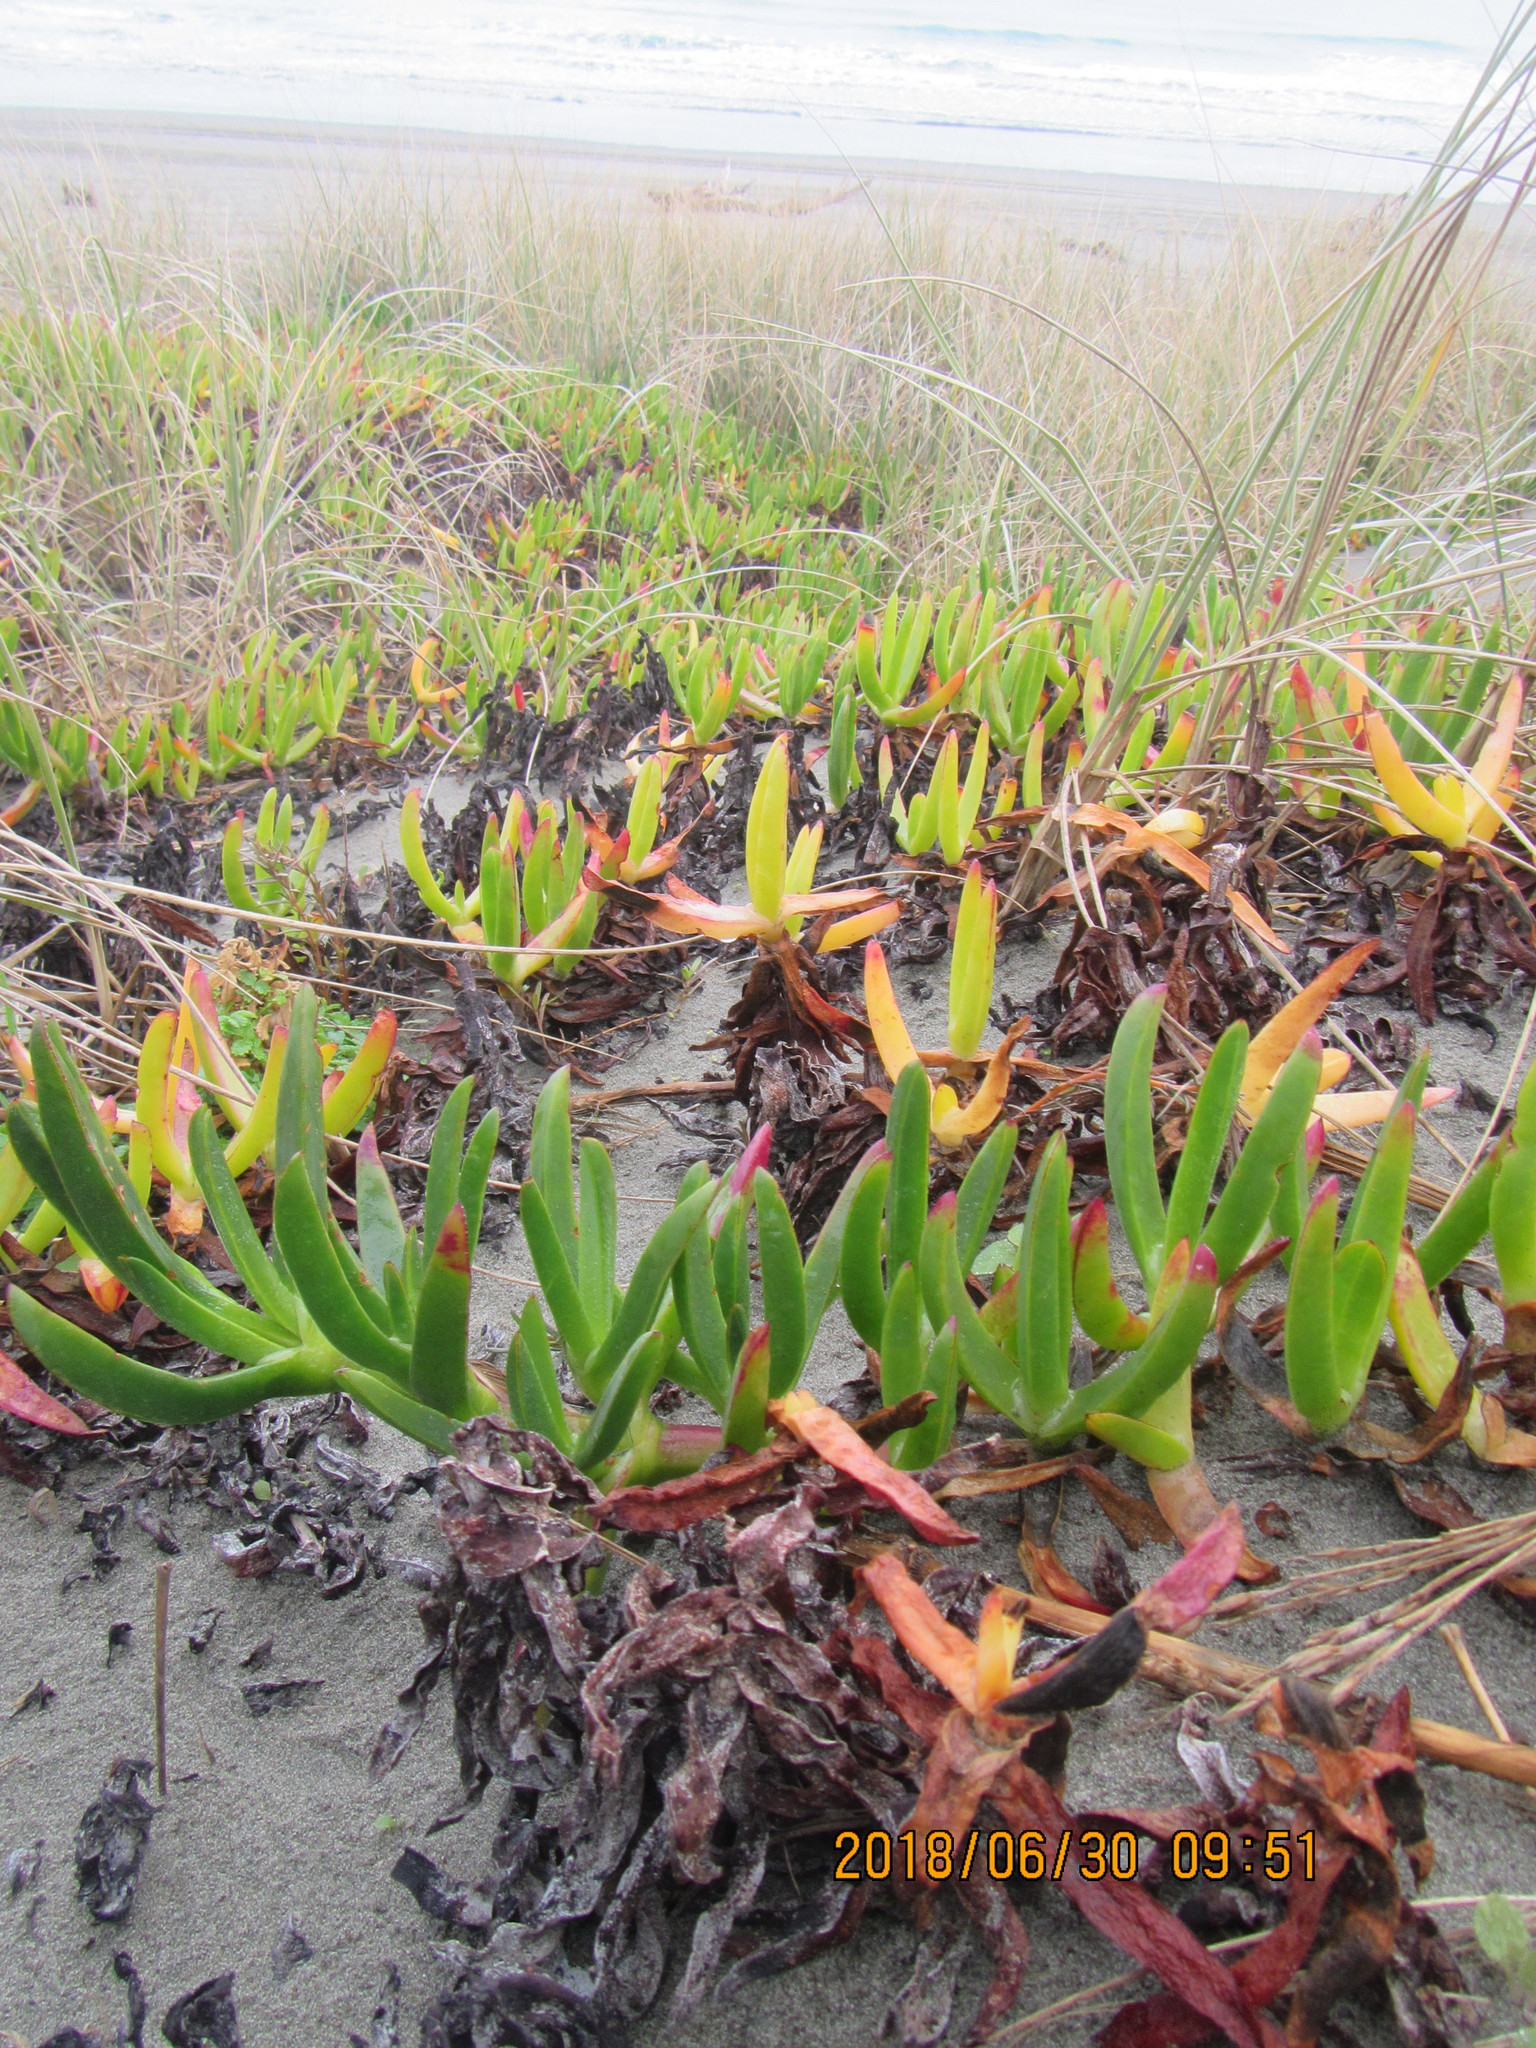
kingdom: Plantae
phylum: Tracheophyta
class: Magnoliopsida
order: Caryophyllales
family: Aizoaceae
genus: Carpobrotus
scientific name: Carpobrotus
